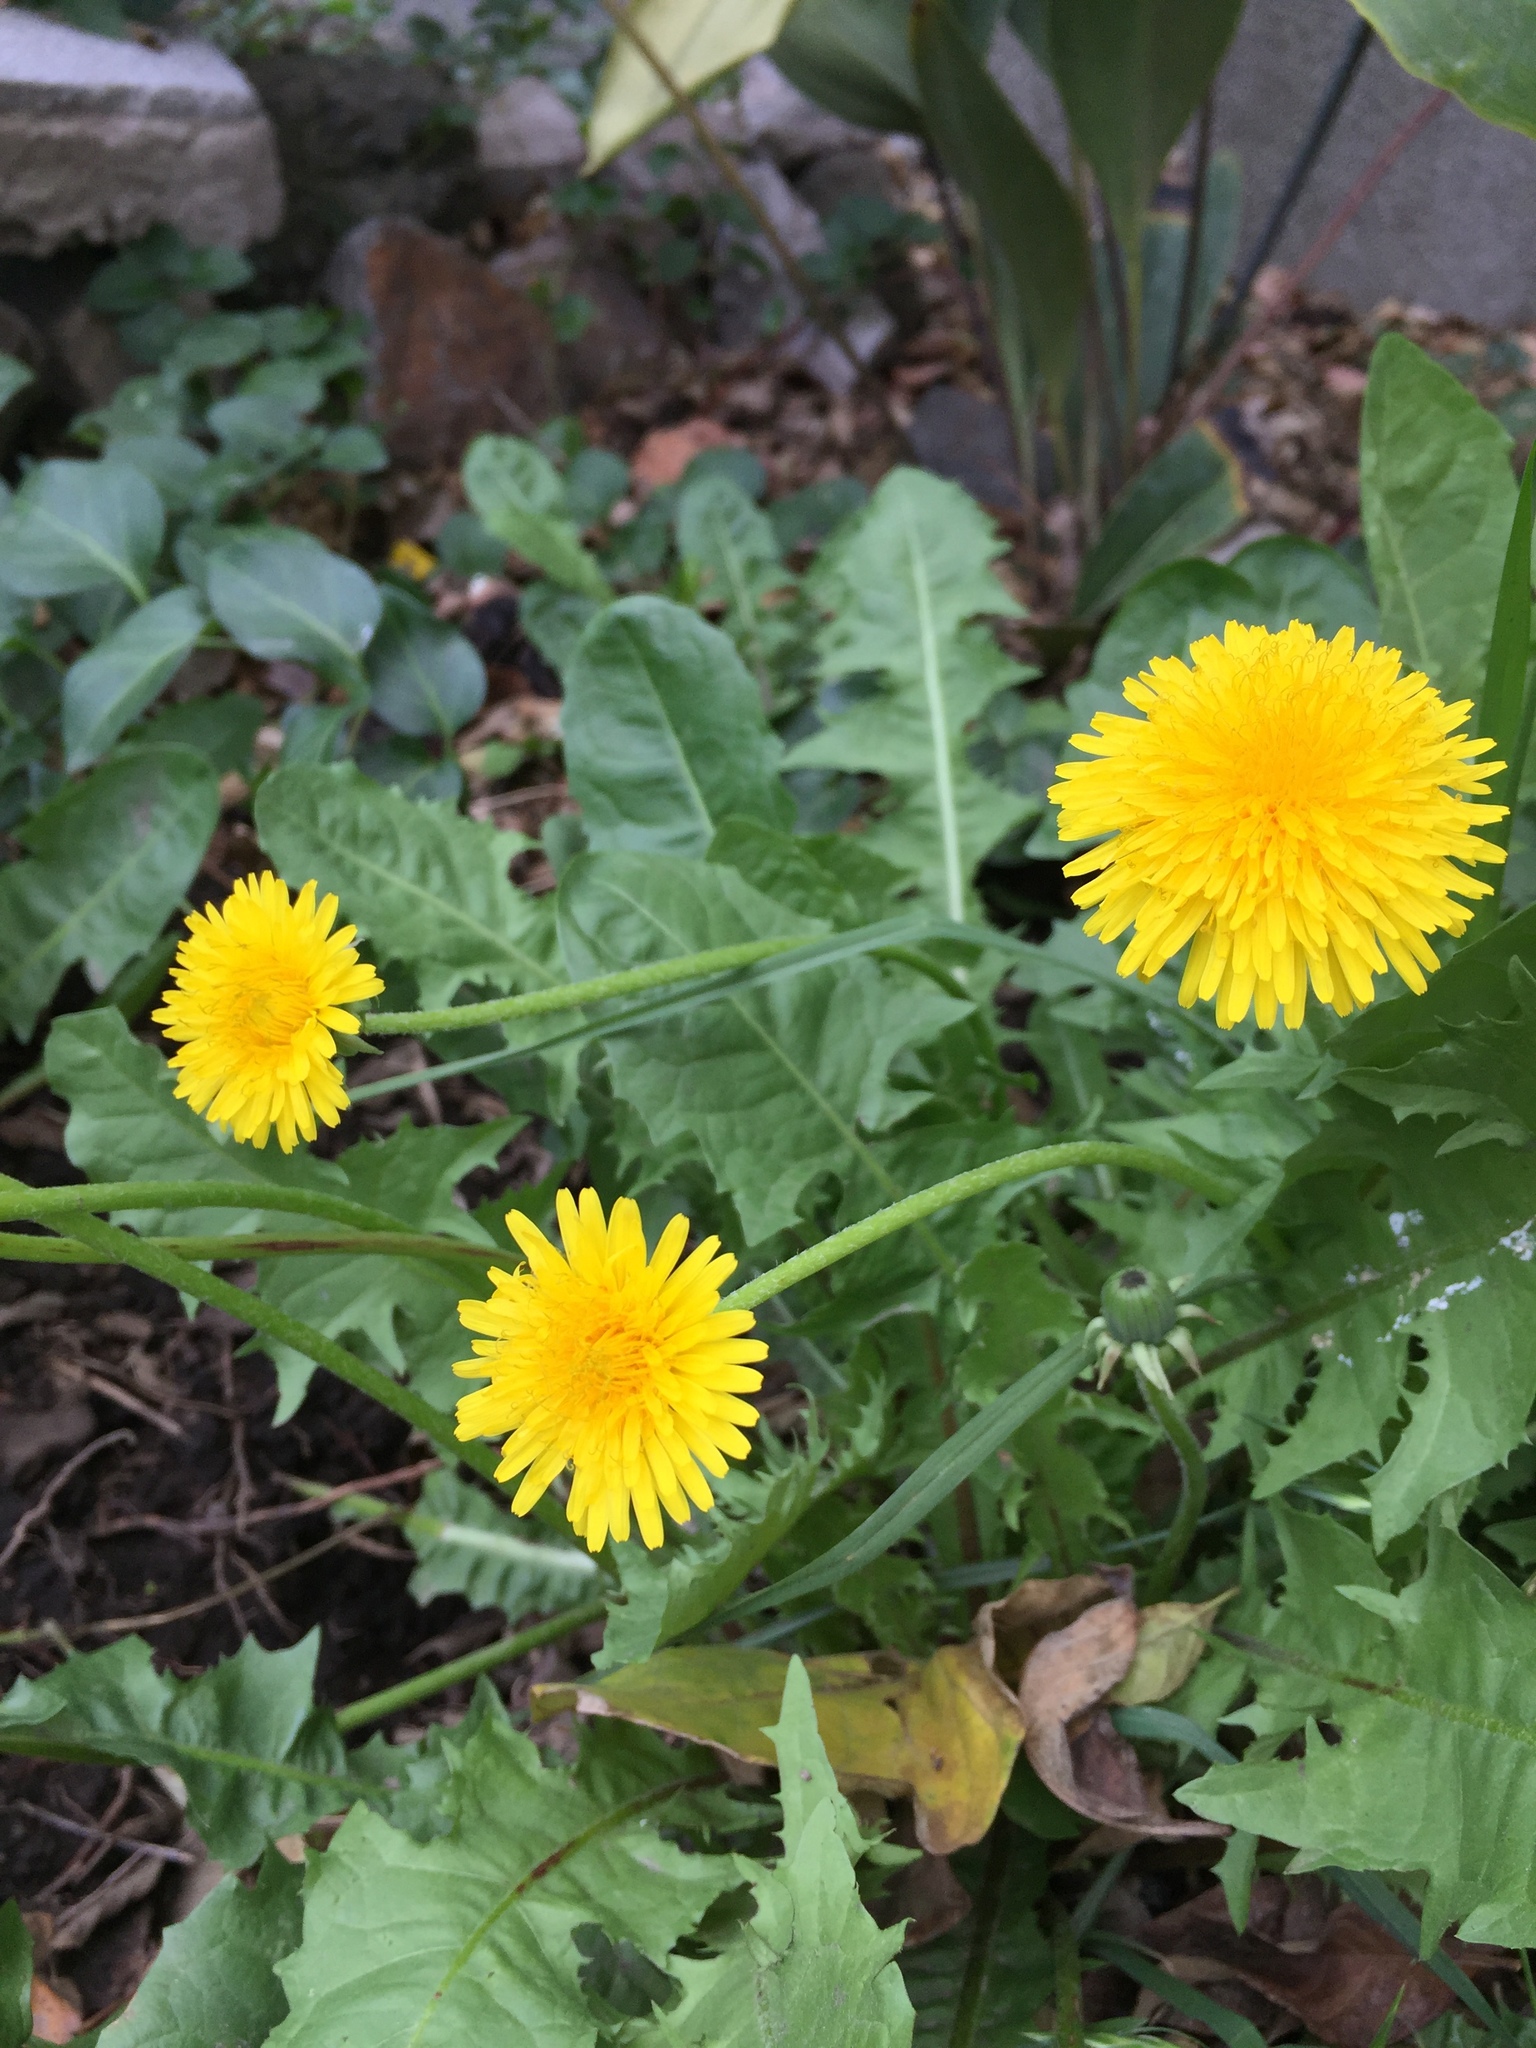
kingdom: Plantae
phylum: Tracheophyta
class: Magnoliopsida
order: Asterales
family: Asteraceae
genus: Taraxacum
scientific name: Taraxacum officinale
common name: Common dandelion
